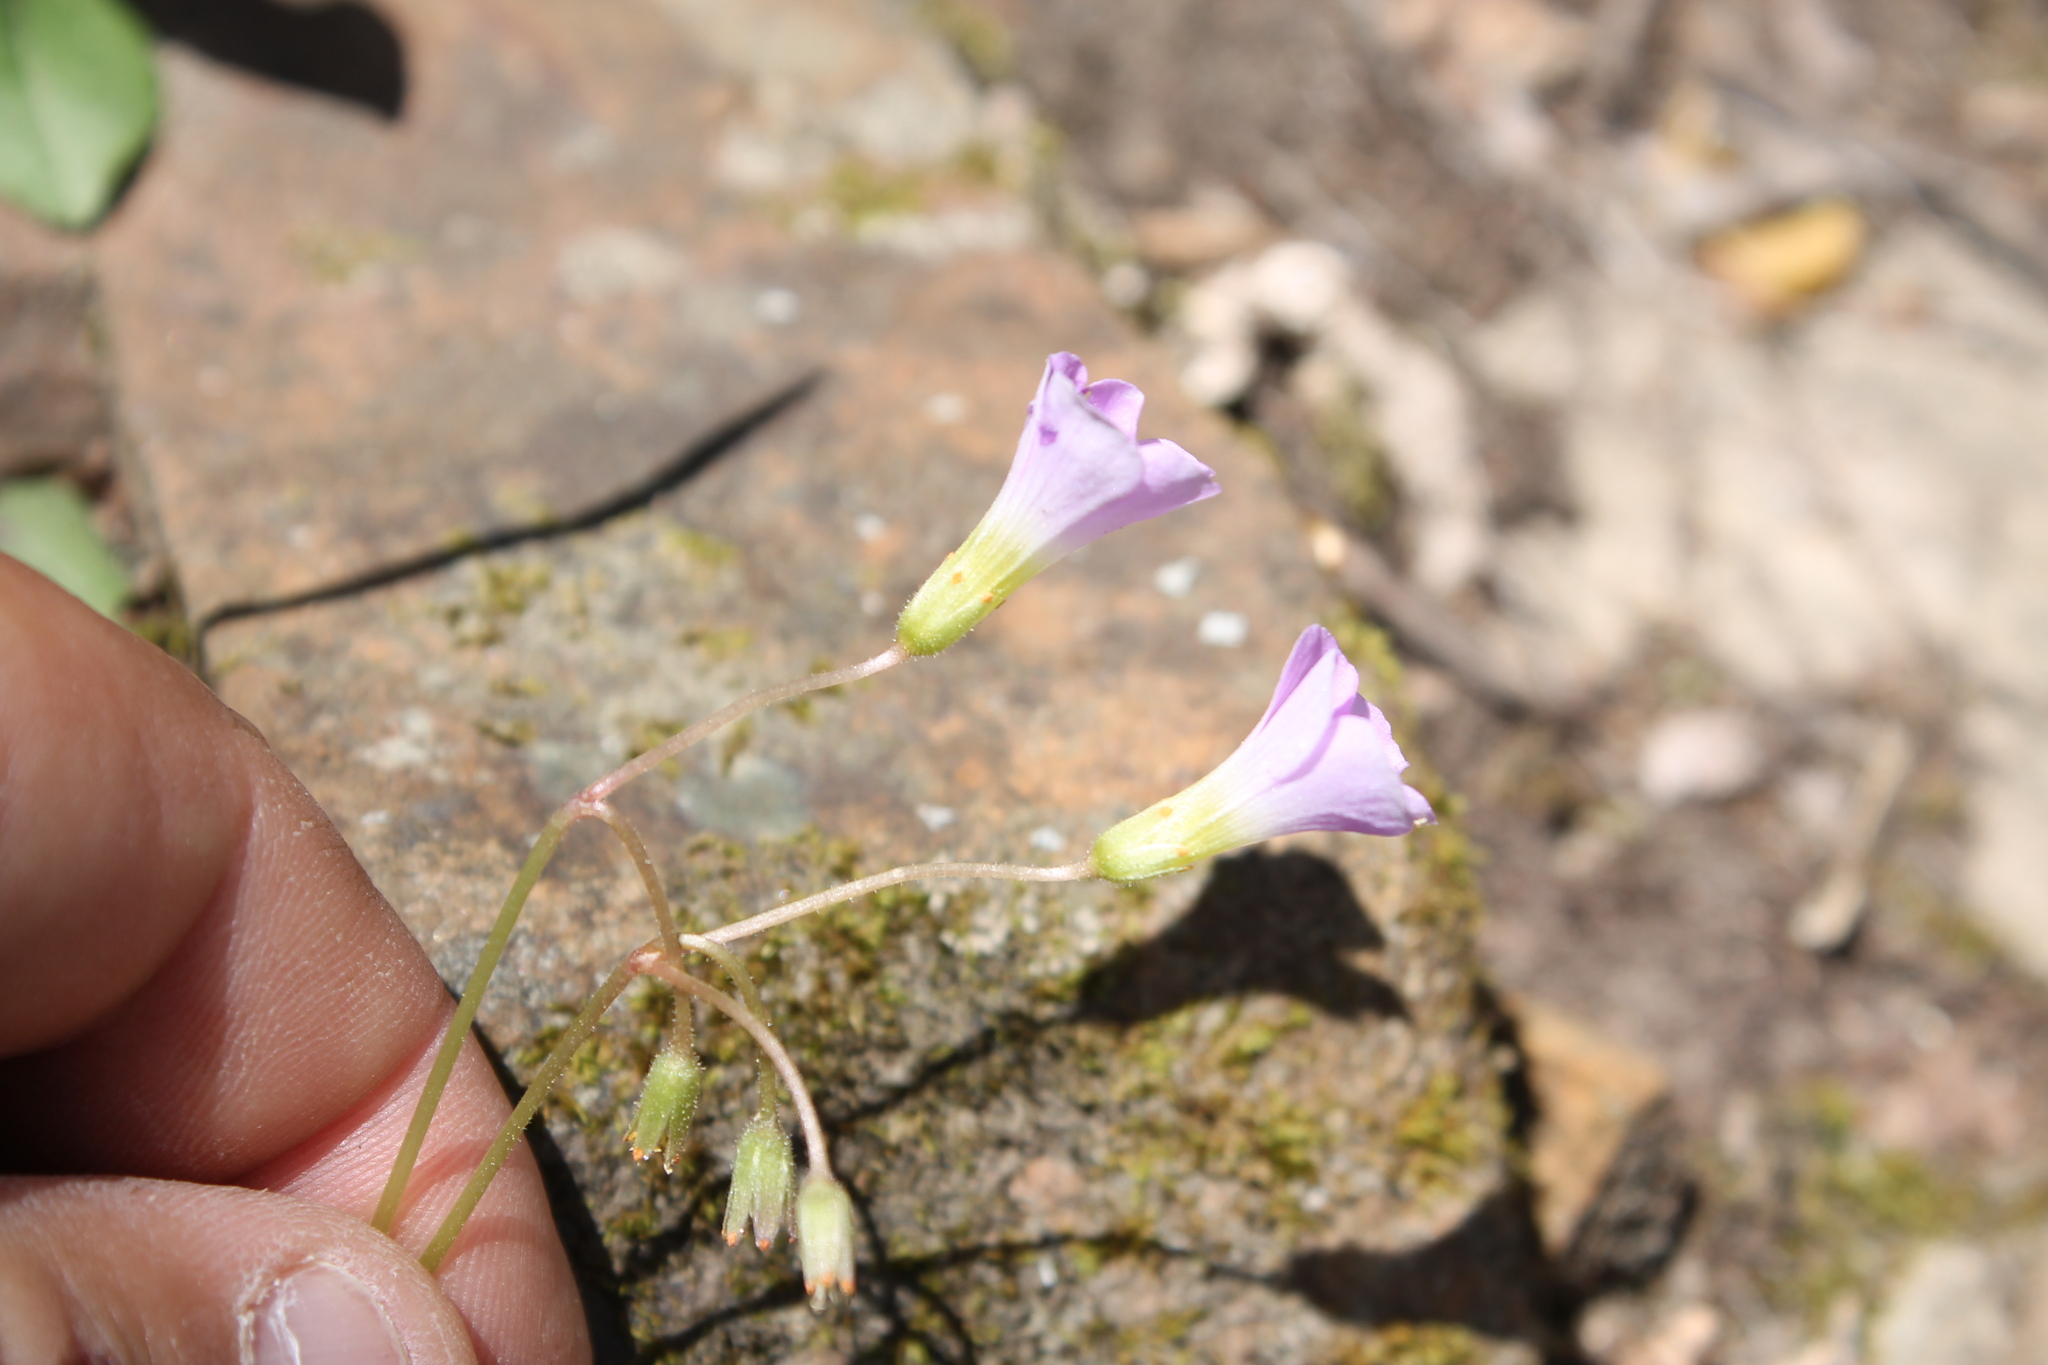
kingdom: Plantae
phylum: Tracheophyta
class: Magnoliopsida
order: Oxalidales
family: Oxalidaceae
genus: Oxalis
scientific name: Oxalis violacea
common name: Violet wood-sorrel
